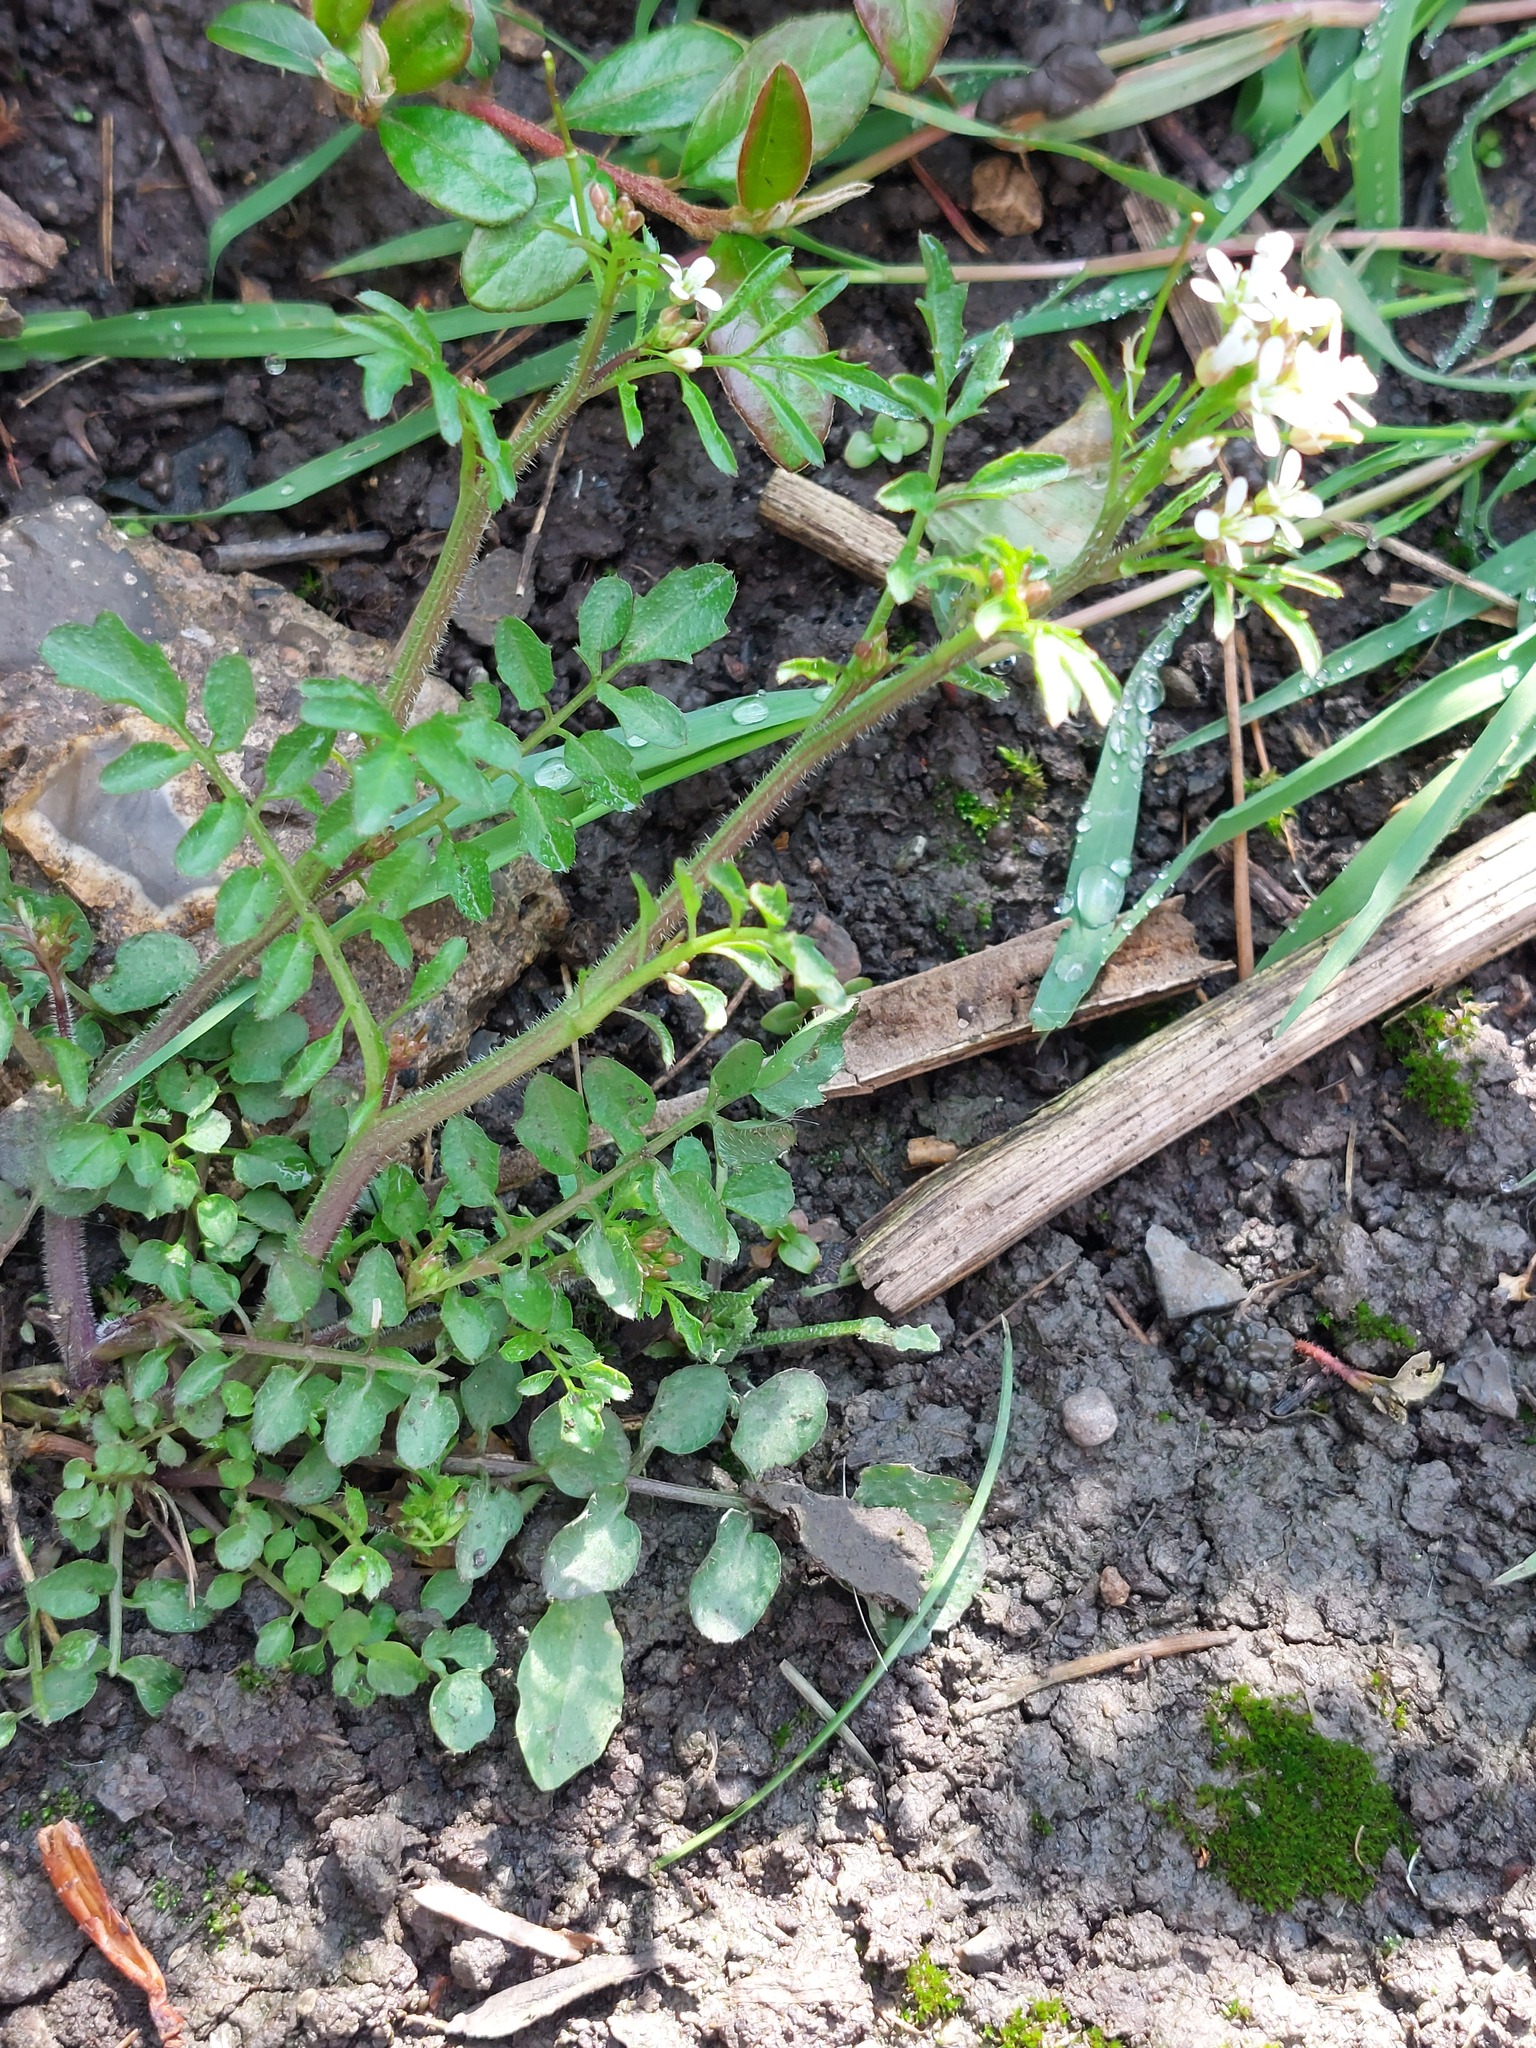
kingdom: Plantae
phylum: Tracheophyta
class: Magnoliopsida
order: Brassicales
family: Brassicaceae
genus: Cardamine
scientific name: Cardamine flexuosa
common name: Woodland bittercress
